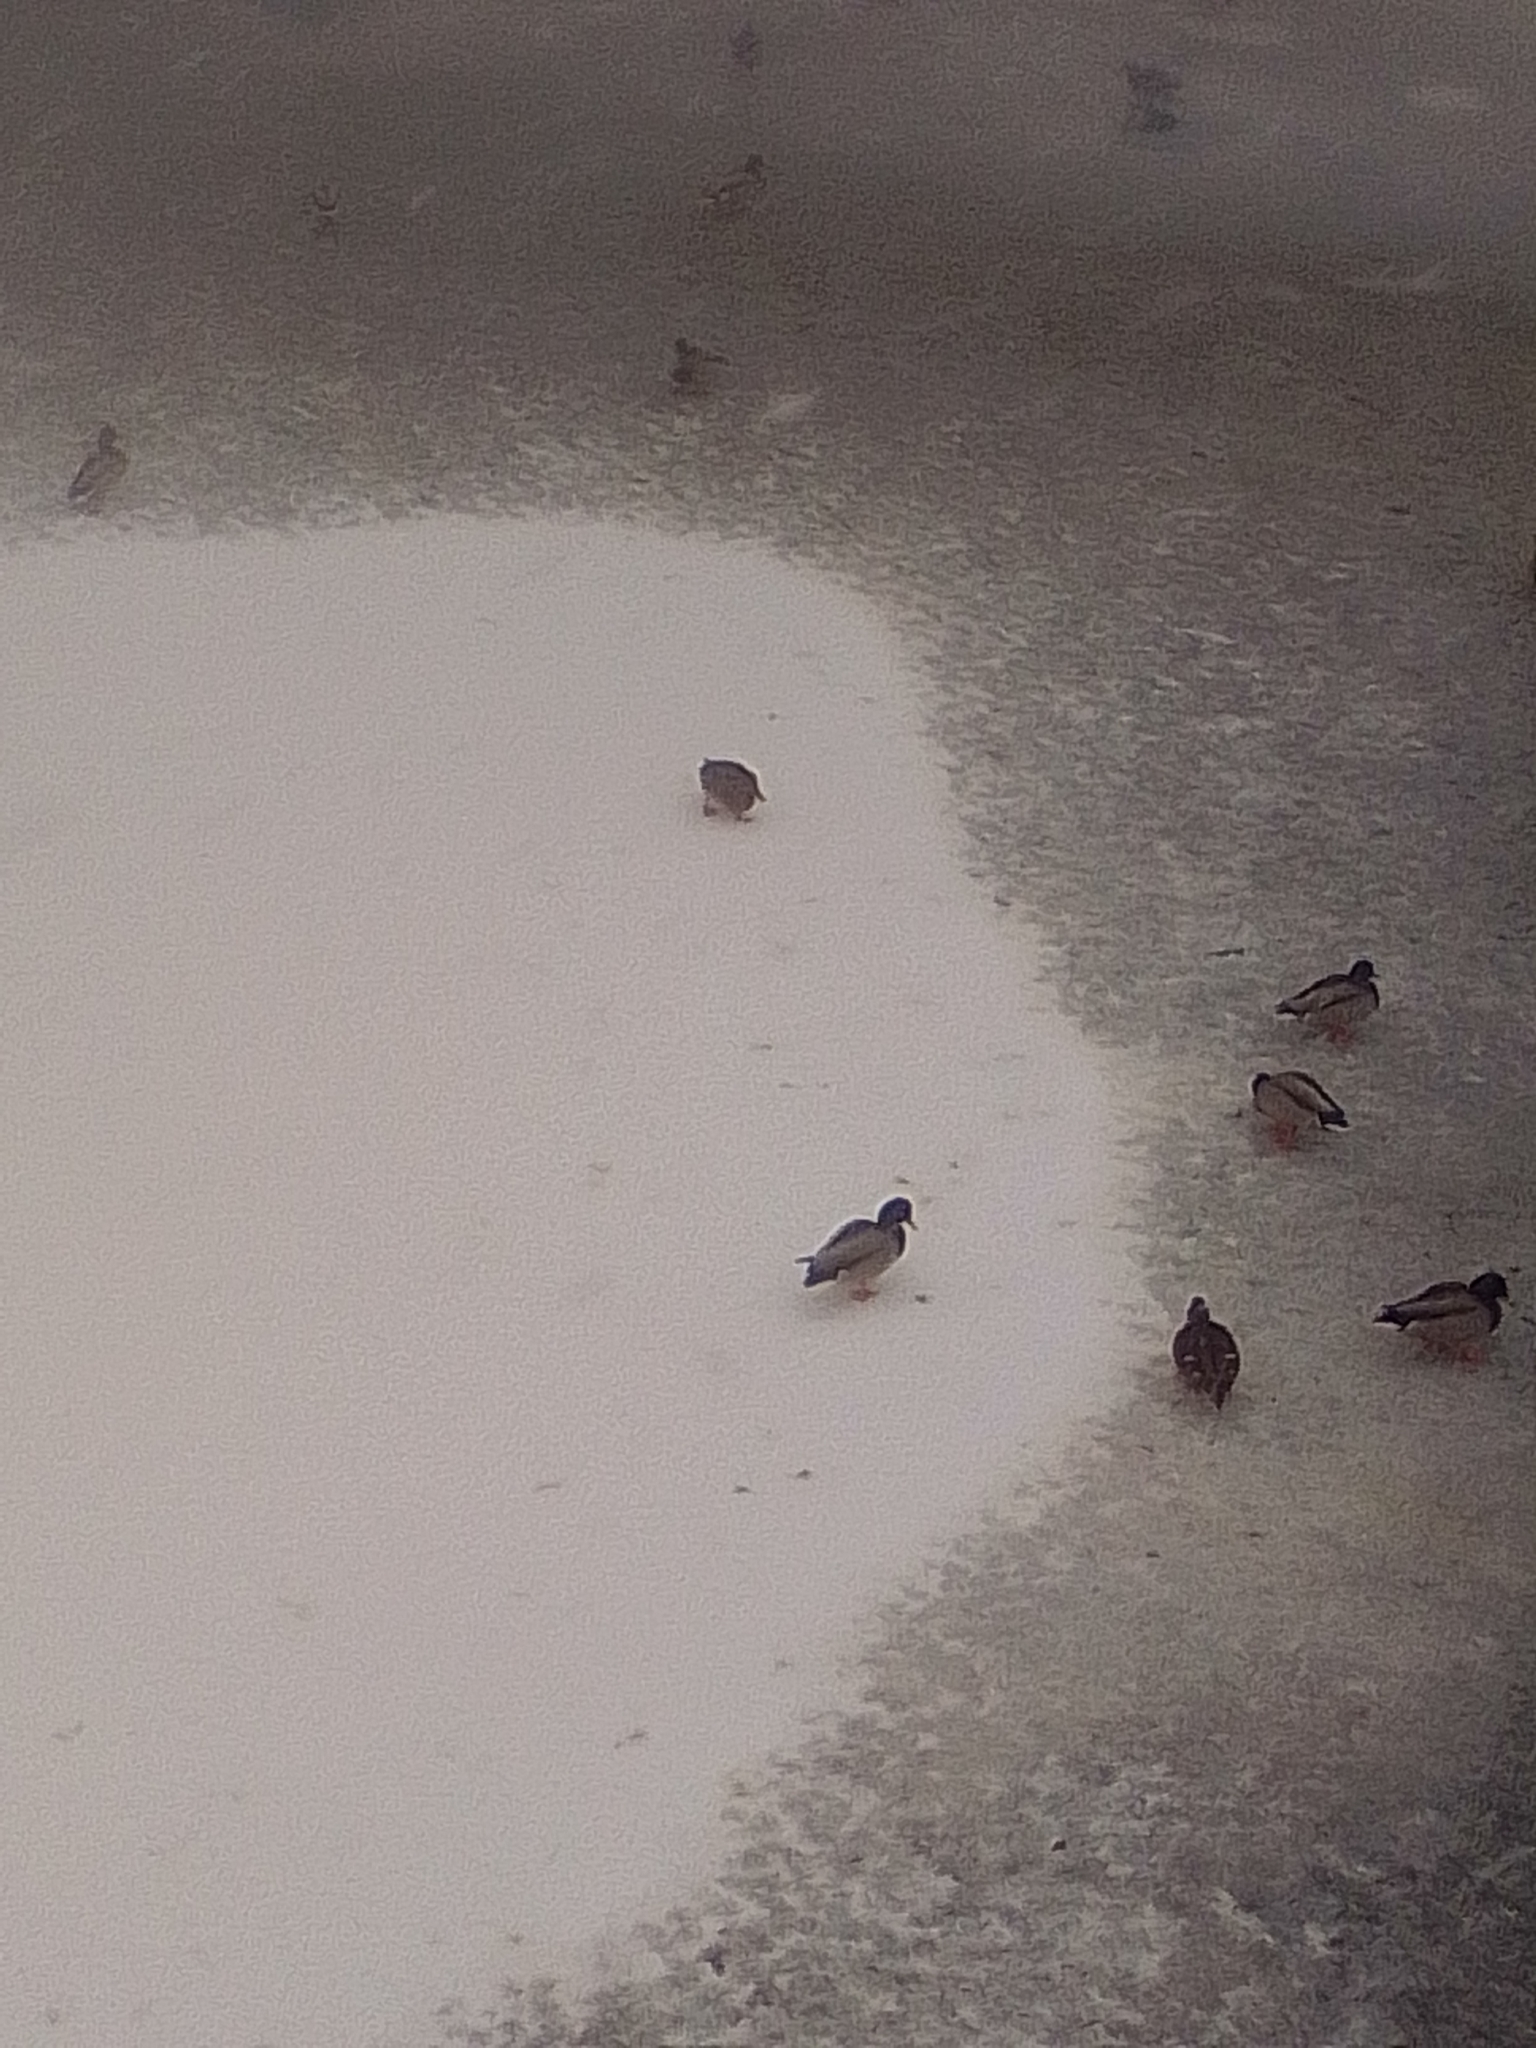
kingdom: Animalia
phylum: Chordata
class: Aves
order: Anseriformes
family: Anatidae
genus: Anas
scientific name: Anas platyrhynchos
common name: Mallard
